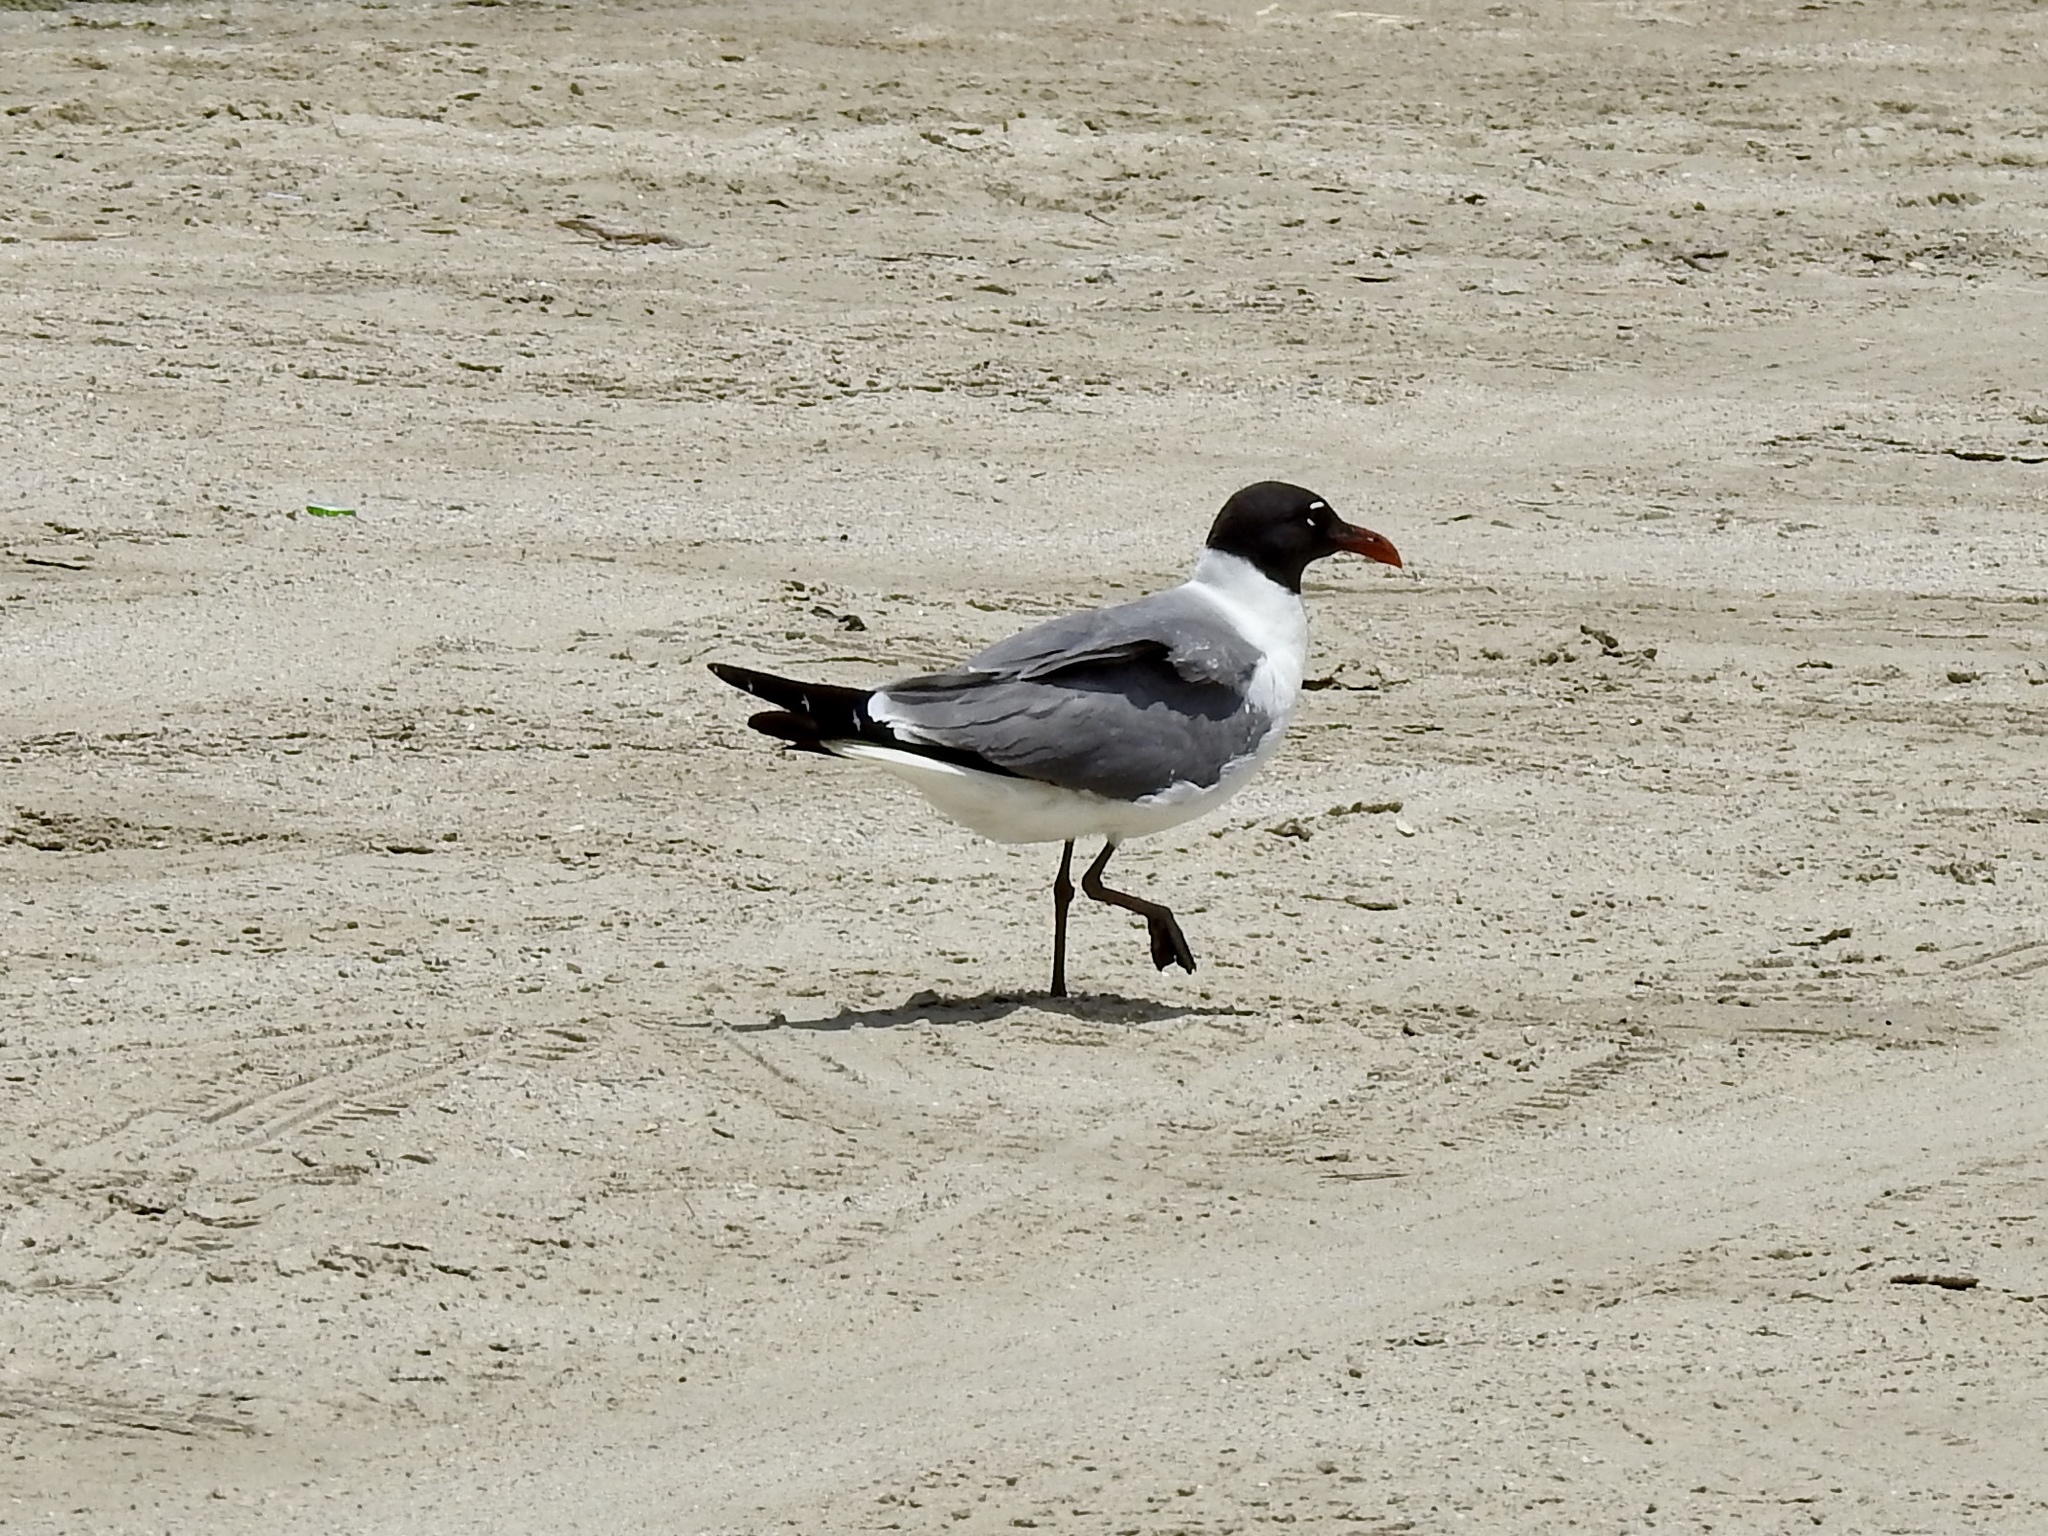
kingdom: Animalia
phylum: Chordata
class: Aves
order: Charadriiformes
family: Laridae
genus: Leucophaeus
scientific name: Leucophaeus atricilla
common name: Laughing gull
